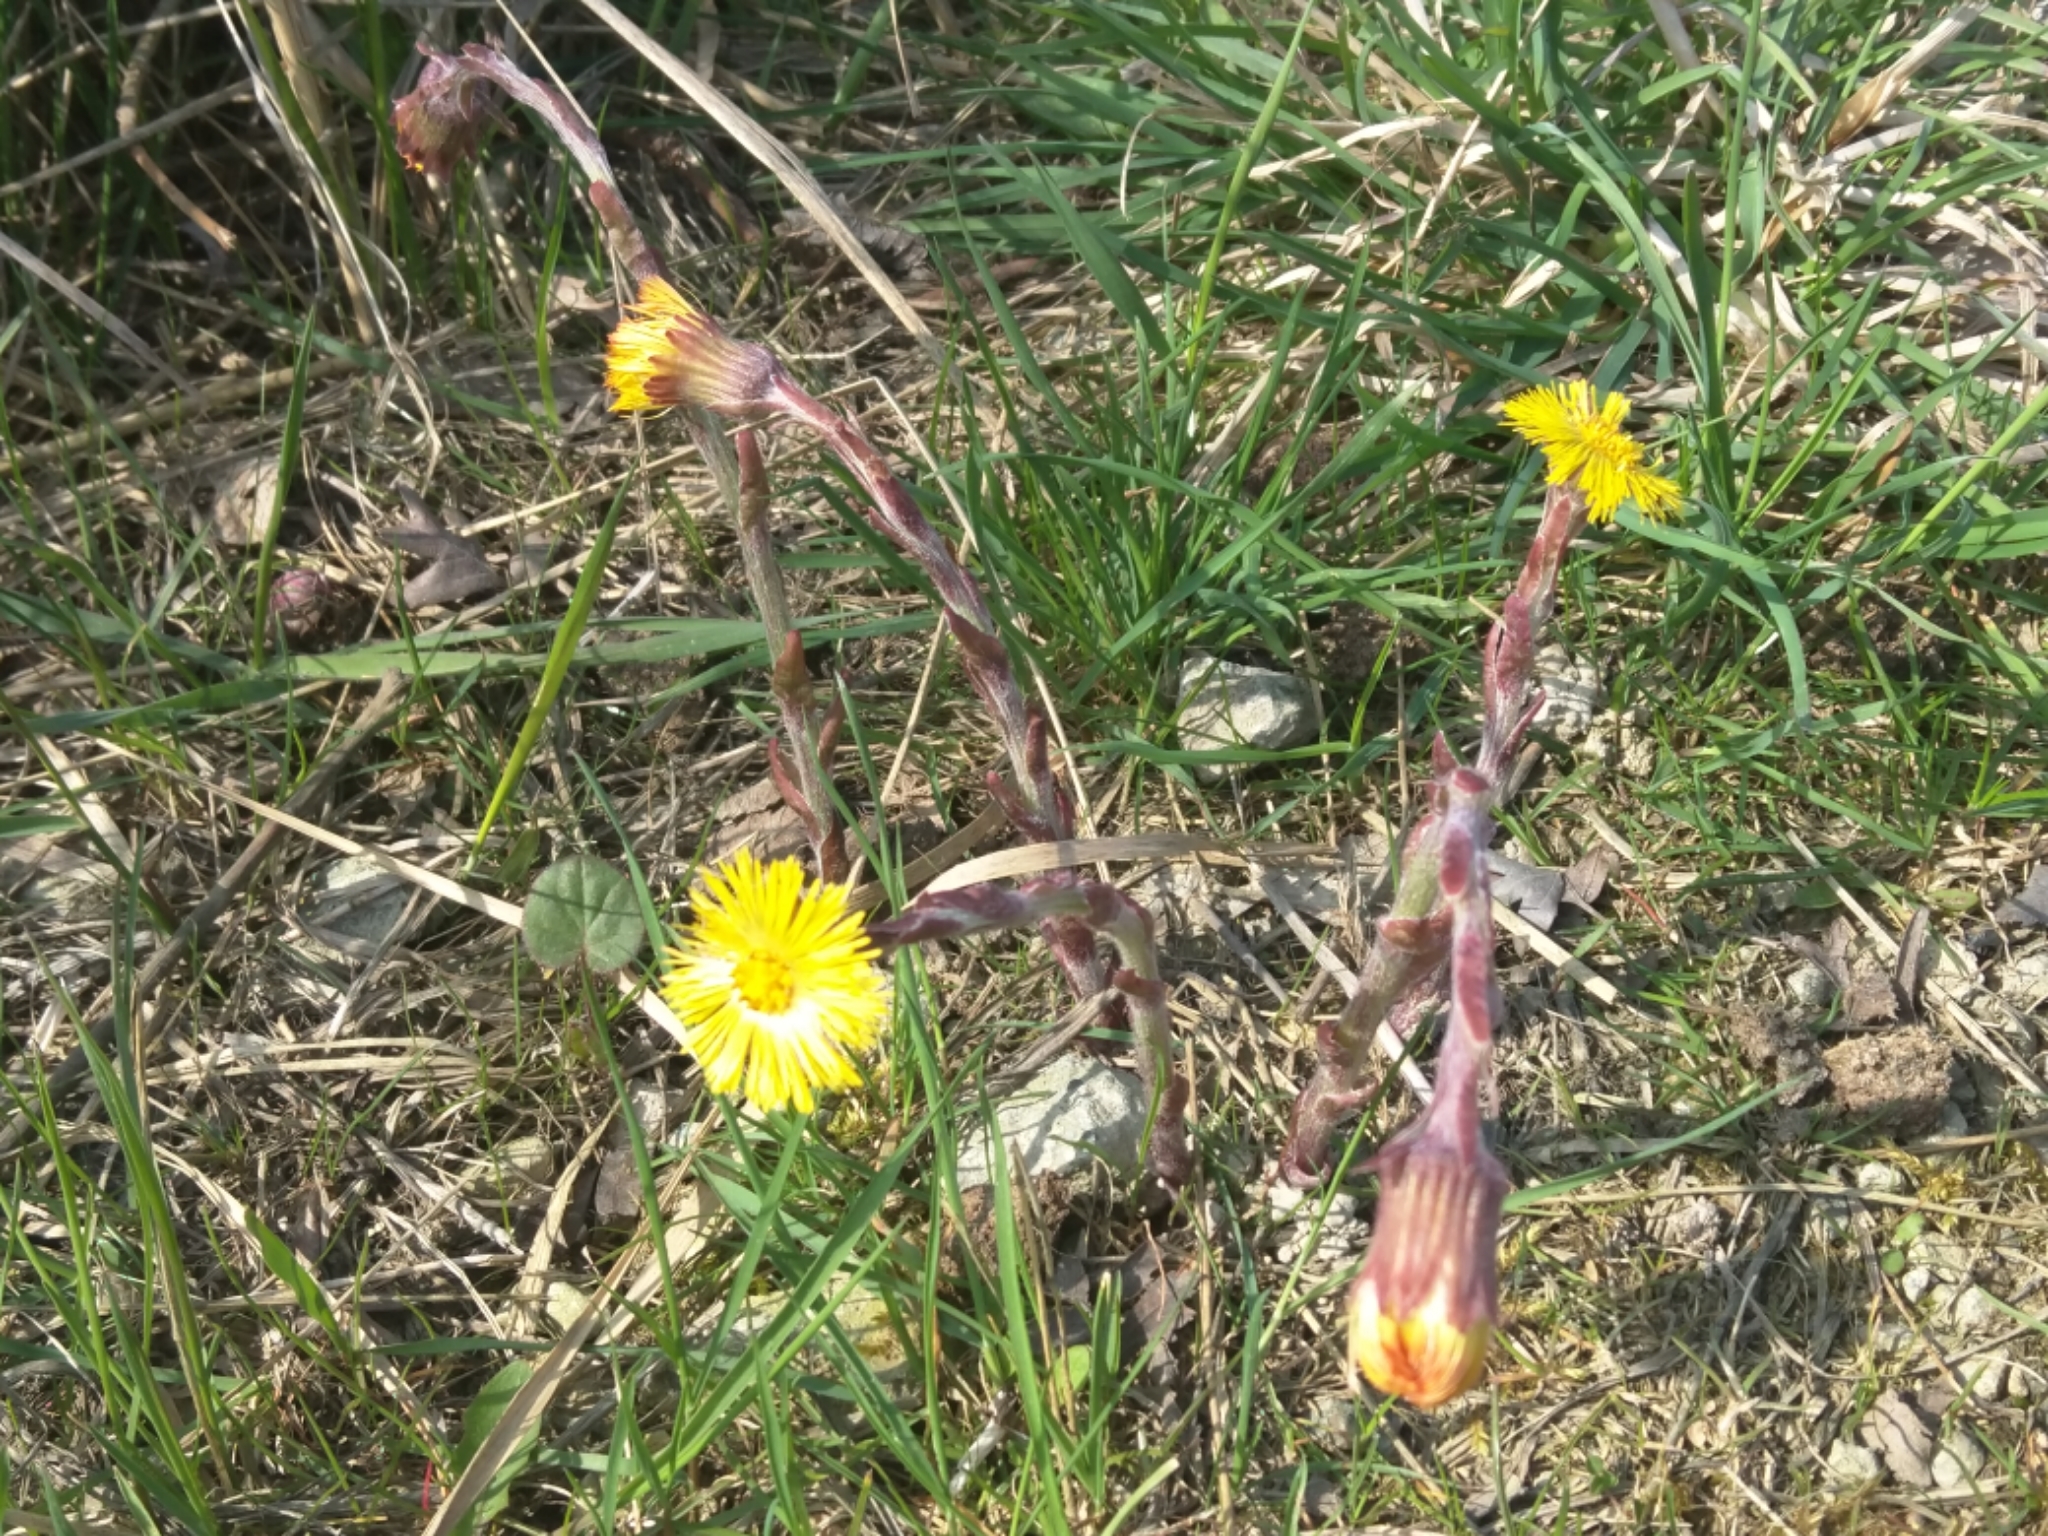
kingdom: Plantae
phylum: Tracheophyta
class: Magnoliopsida
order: Asterales
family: Asteraceae
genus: Tussilago
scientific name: Tussilago farfara
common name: Coltsfoot
